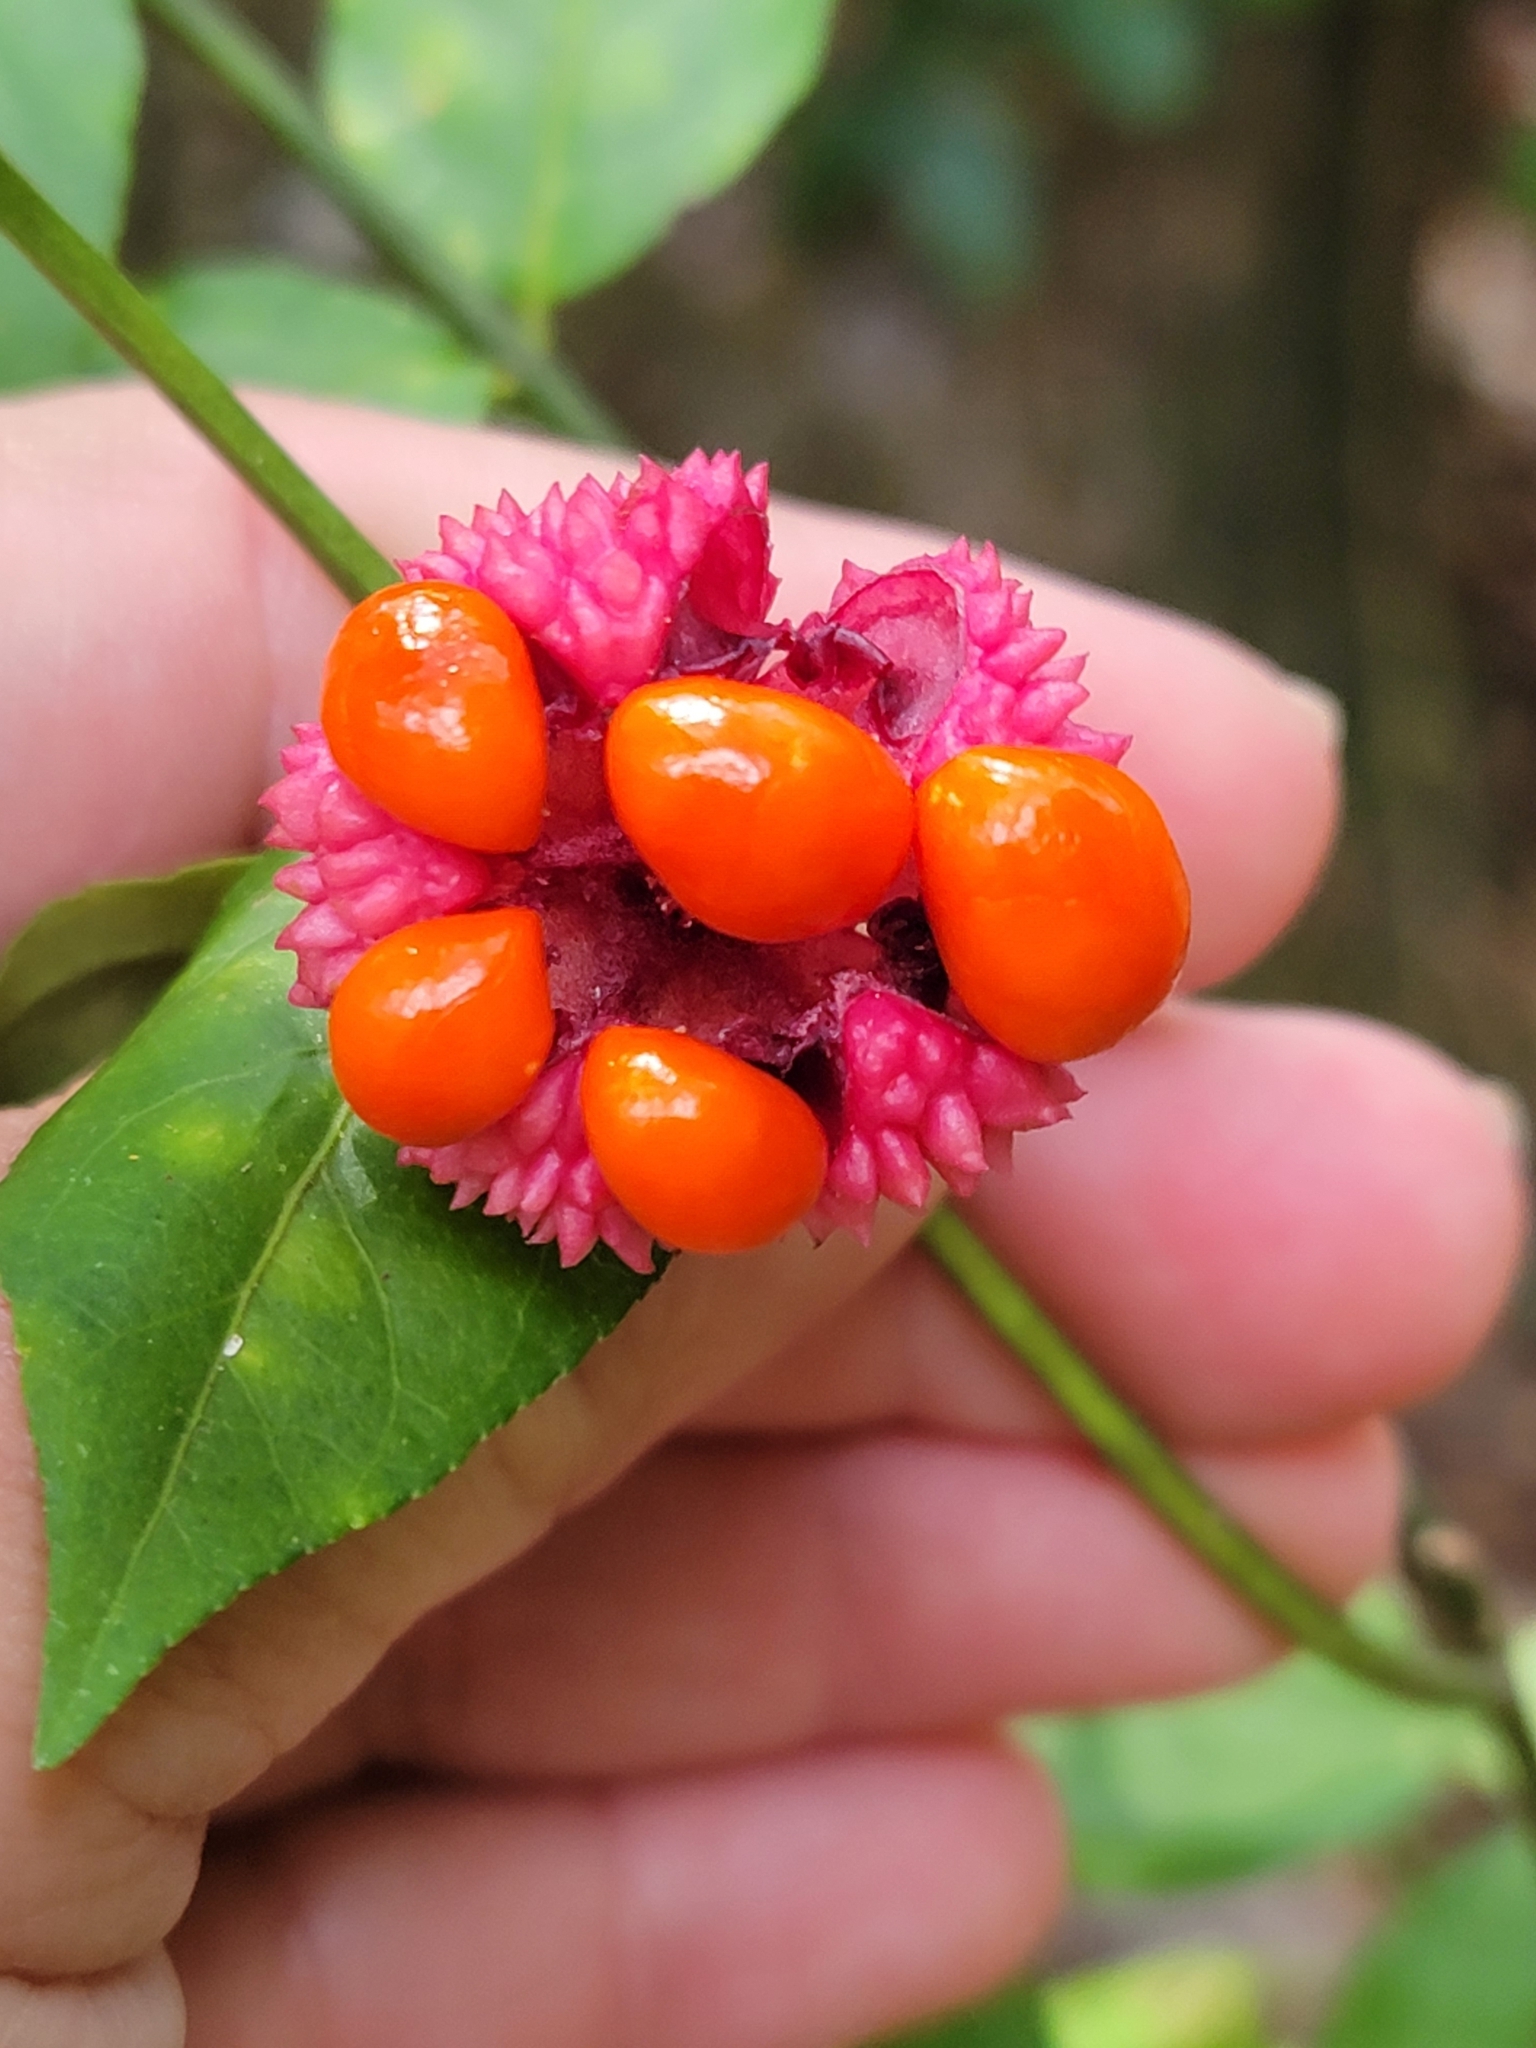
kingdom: Plantae
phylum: Tracheophyta
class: Magnoliopsida
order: Celastrales
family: Celastraceae
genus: Euonymus
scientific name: Euonymus americanus
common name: Bursting-heart
